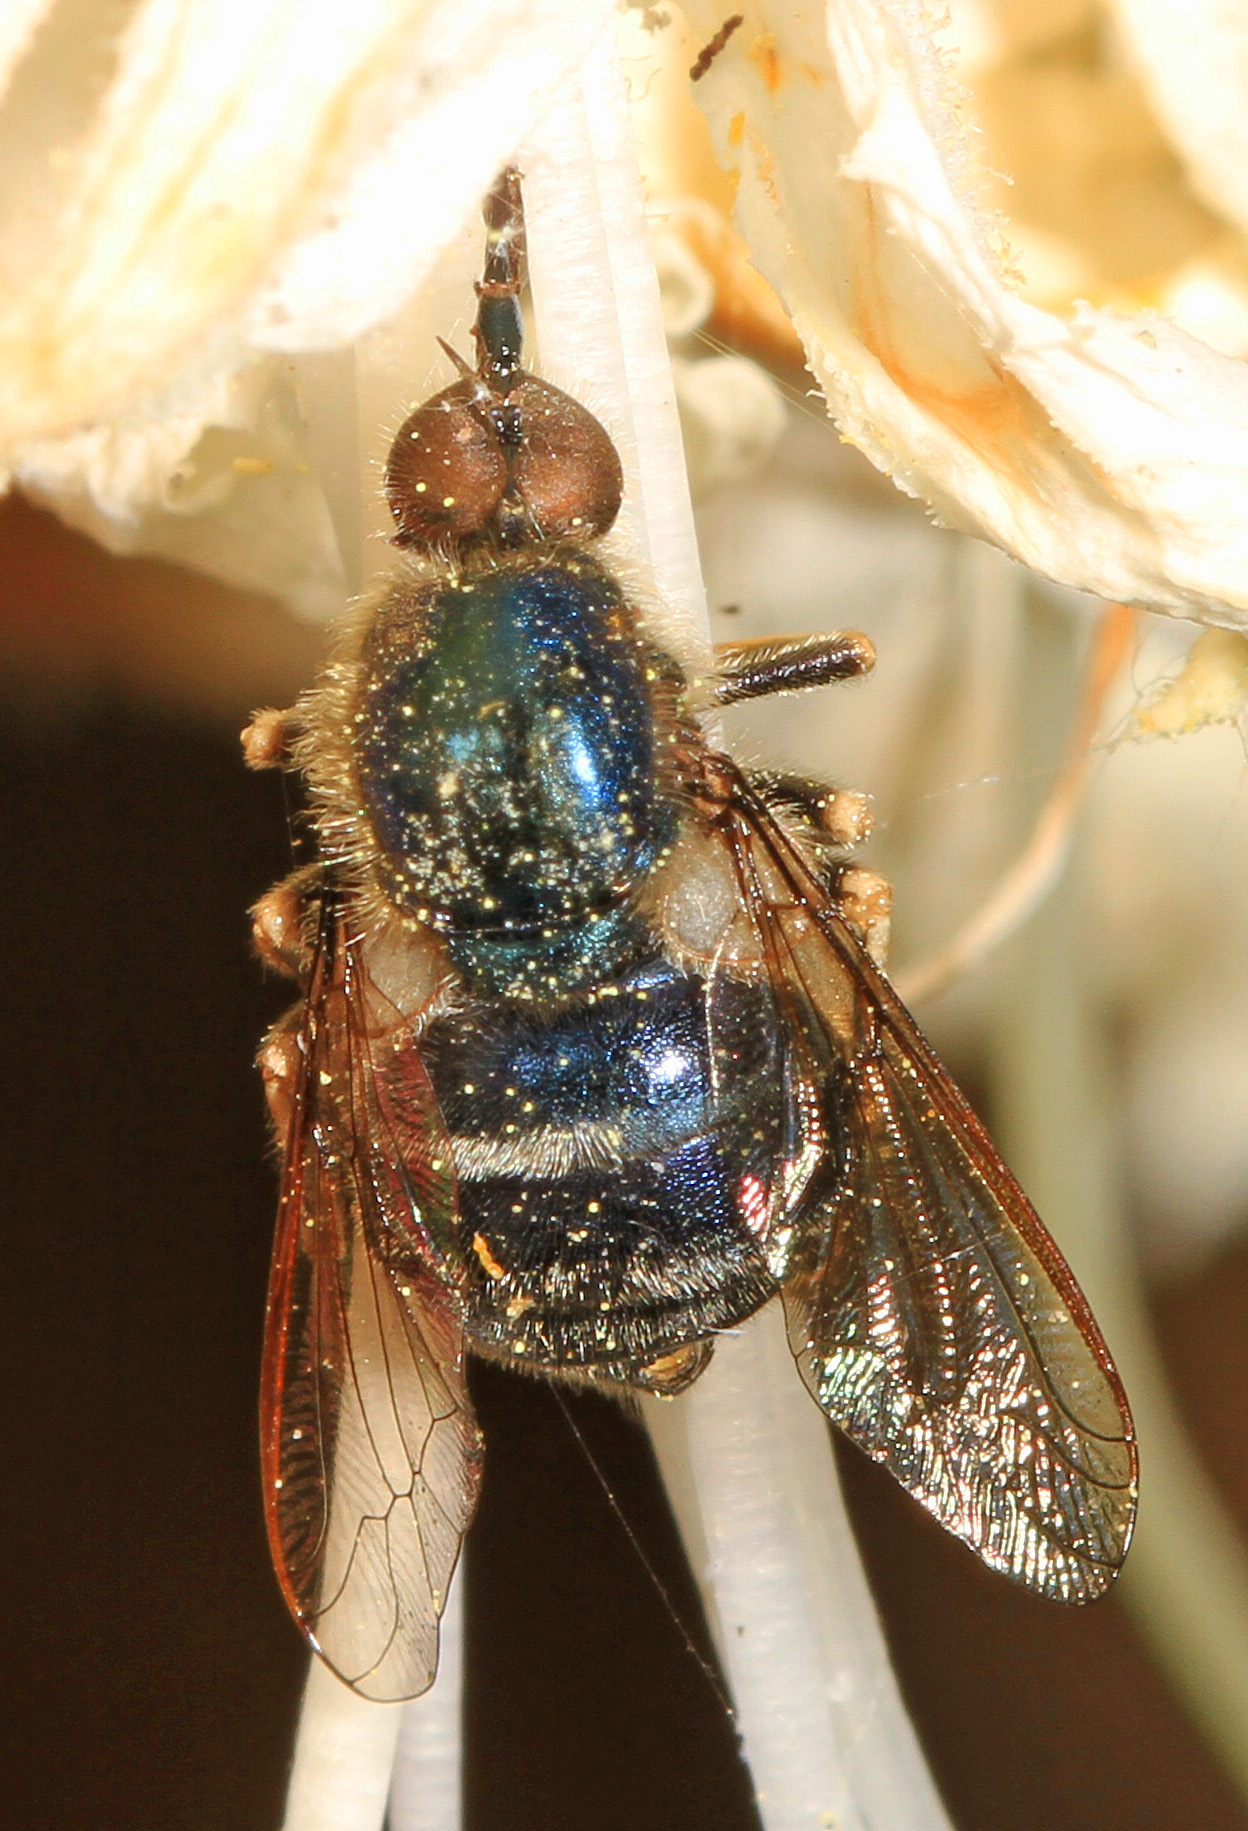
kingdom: Animalia
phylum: Arthropoda
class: Insecta
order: Diptera
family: Acroceridae
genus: Eulonchus
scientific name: Eulonchus tristis
